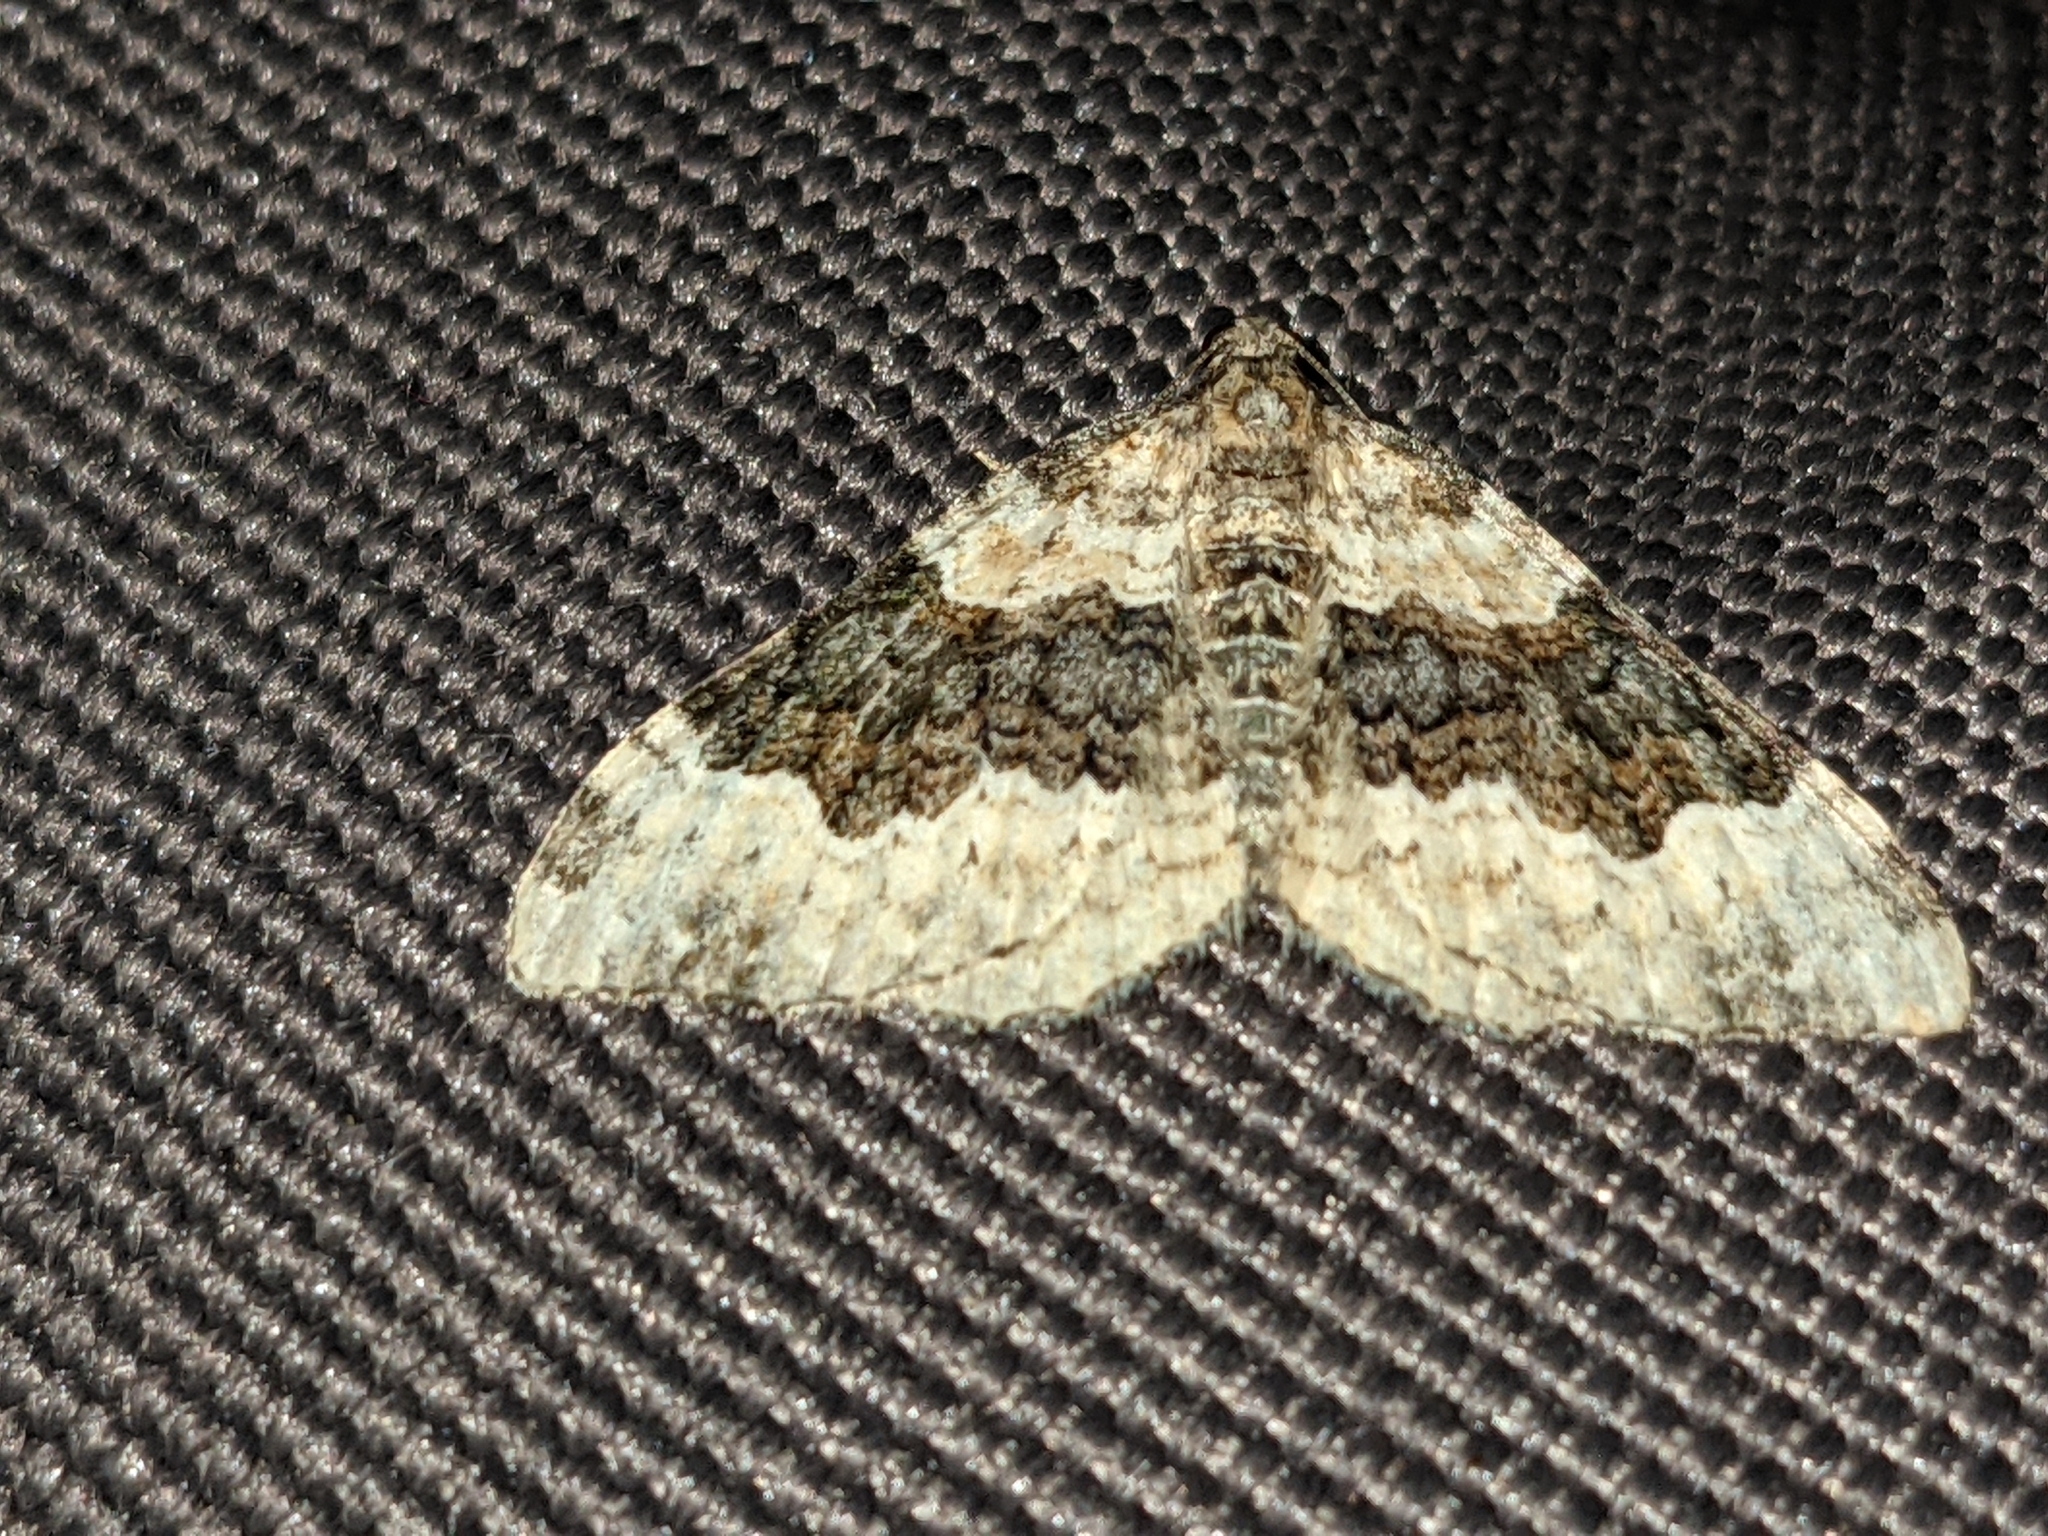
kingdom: Animalia
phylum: Arthropoda
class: Insecta
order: Lepidoptera
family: Geometridae
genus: Epirrhoe
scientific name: Epirrhoe galiata
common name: Galium carpet
